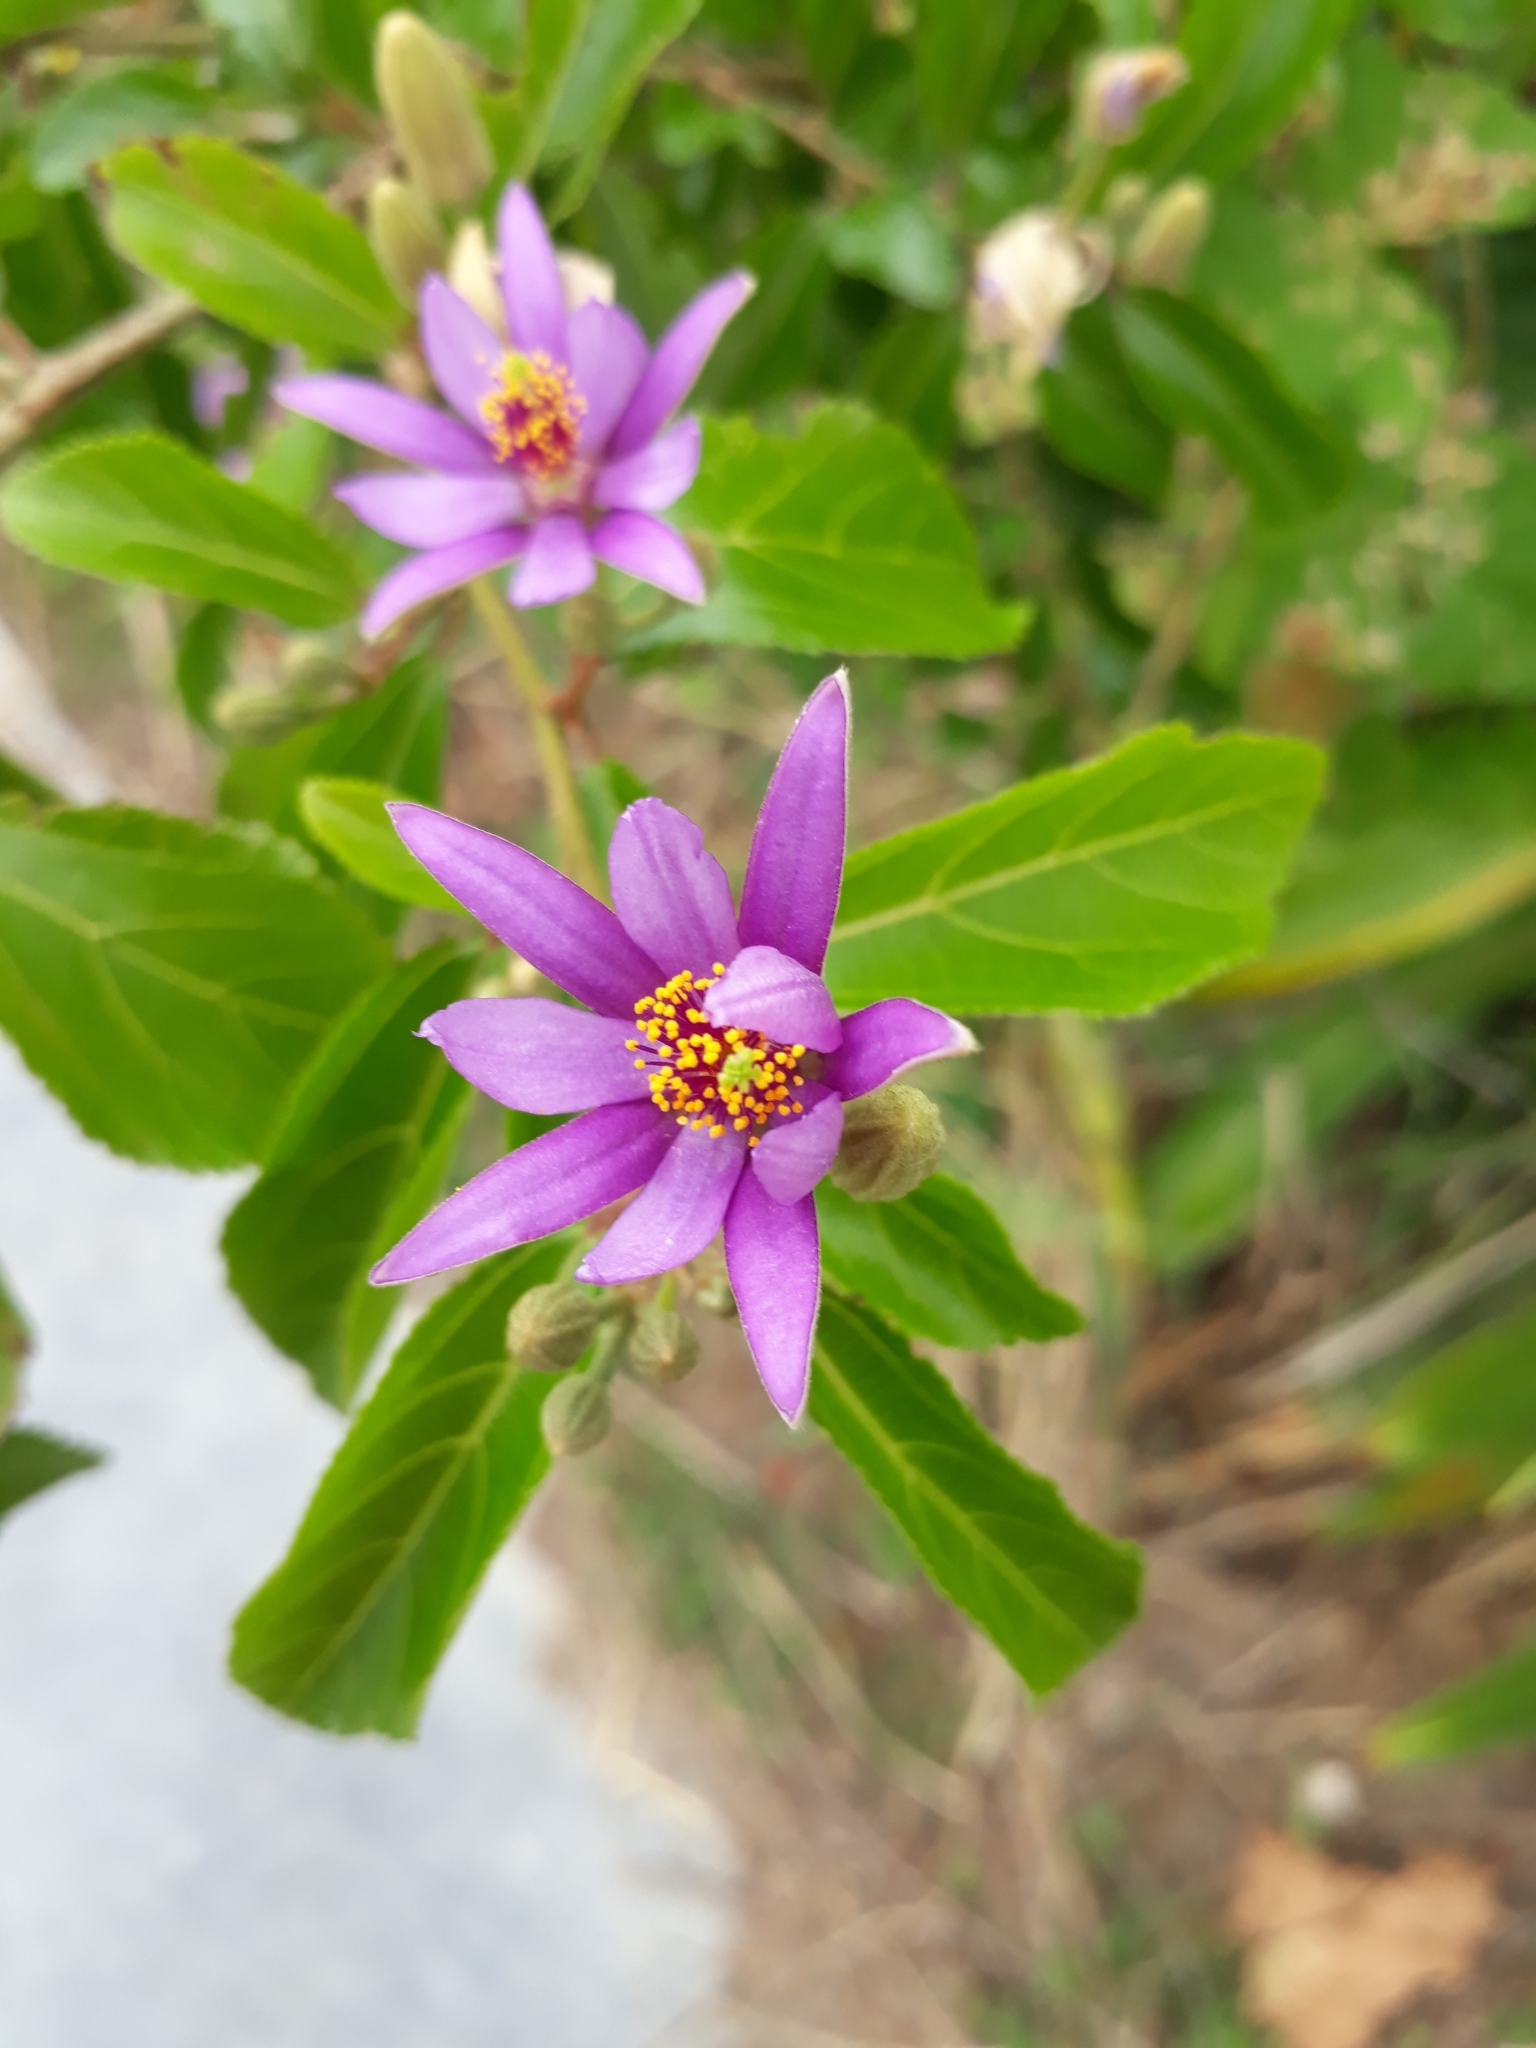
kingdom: Plantae
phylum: Tracheophyta
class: Magnoliopsida
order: Malvales
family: Malvaceae
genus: Grewia
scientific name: Grewia occidentalis
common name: Crossberry
